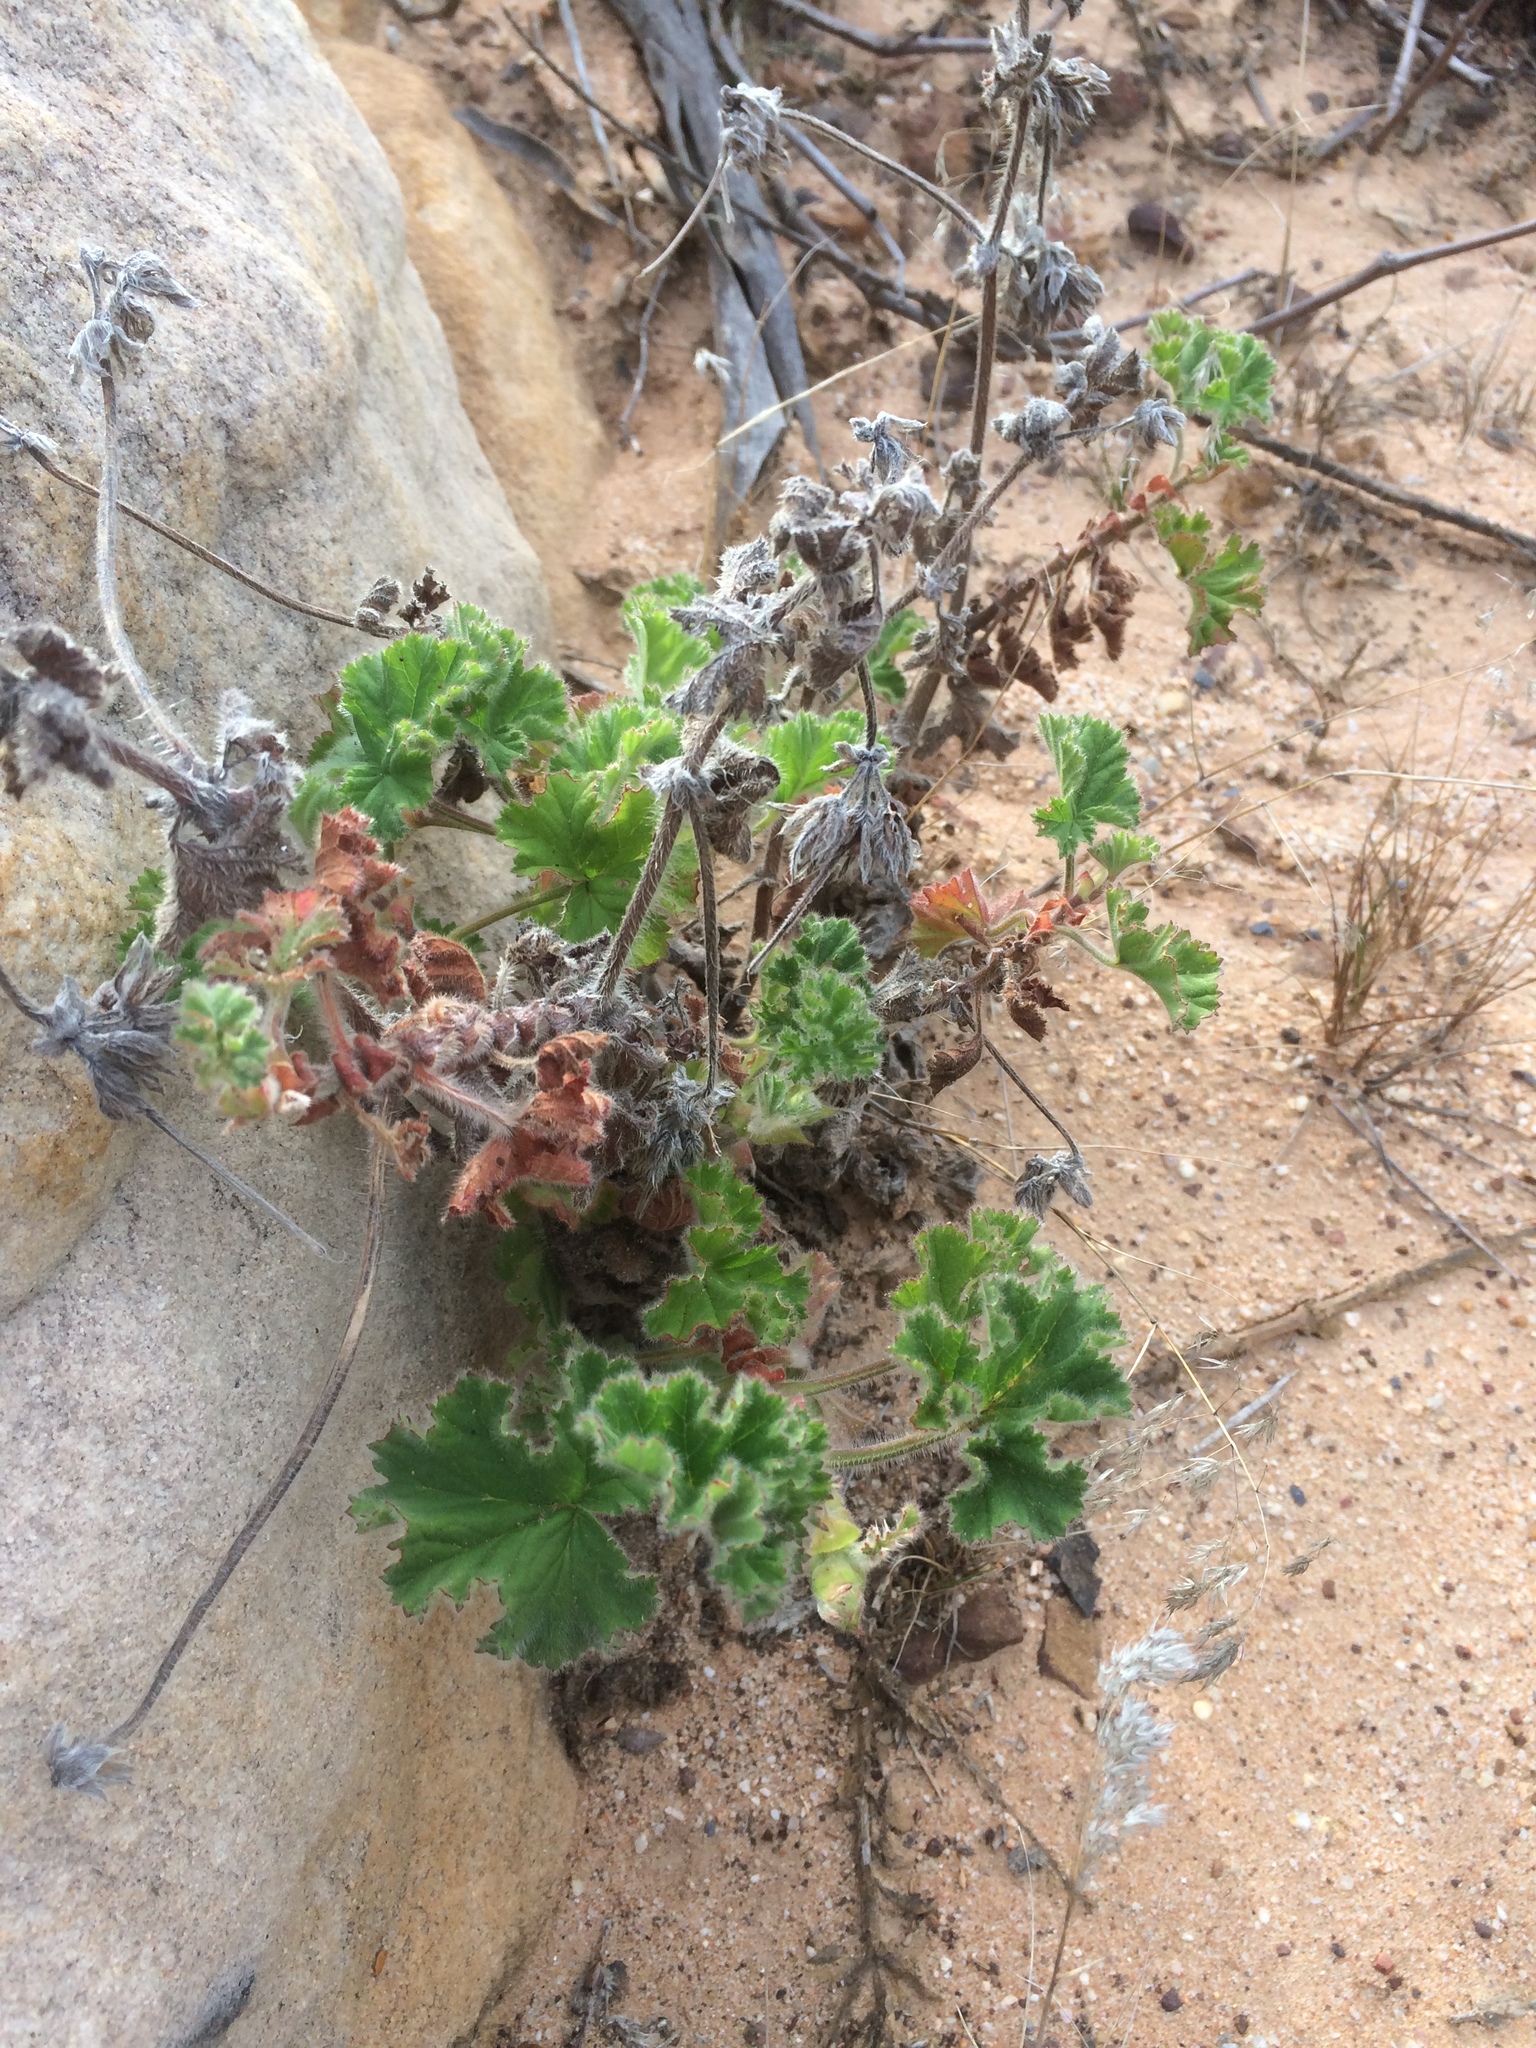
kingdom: Plantae
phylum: Tracheophyta
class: Magnoliopsida
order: Geraniales
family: Geraniaceae
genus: Pelargonium
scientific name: Pelargonium capitatum
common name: Rose scented geranium
